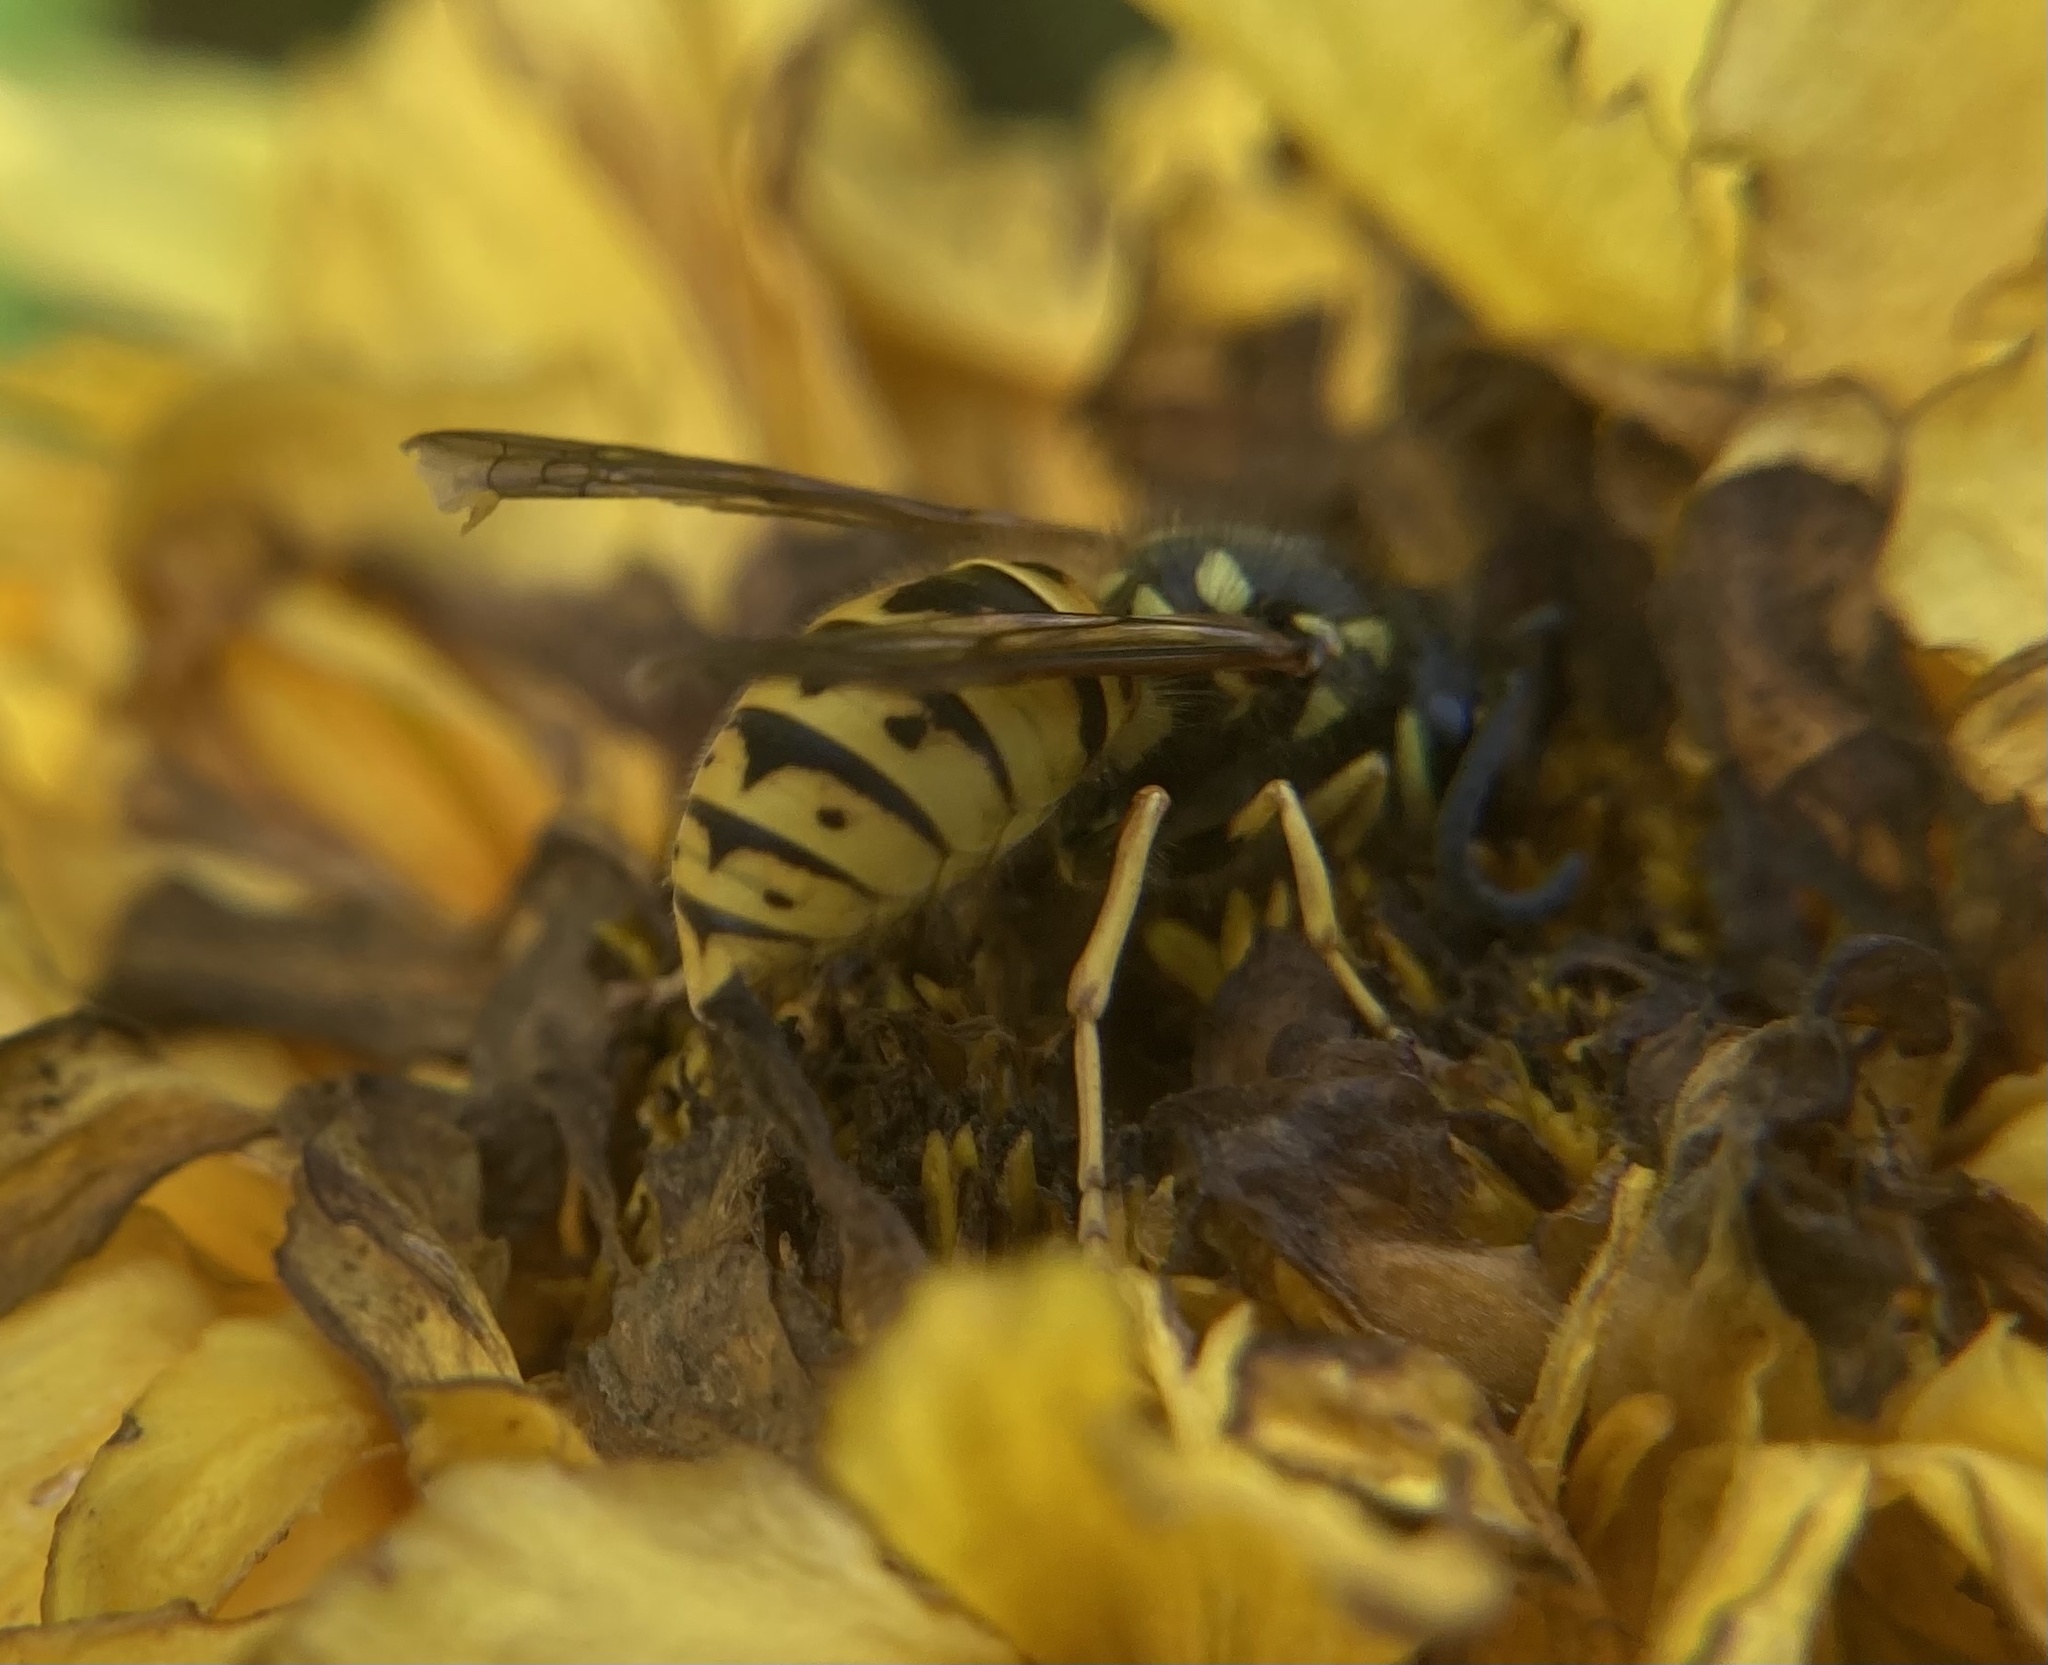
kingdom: Animalia
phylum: Arthropoda
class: Insecta
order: Hymenoptera
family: Vespidae
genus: Vespula
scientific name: Vespula germanica
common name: German wasp
